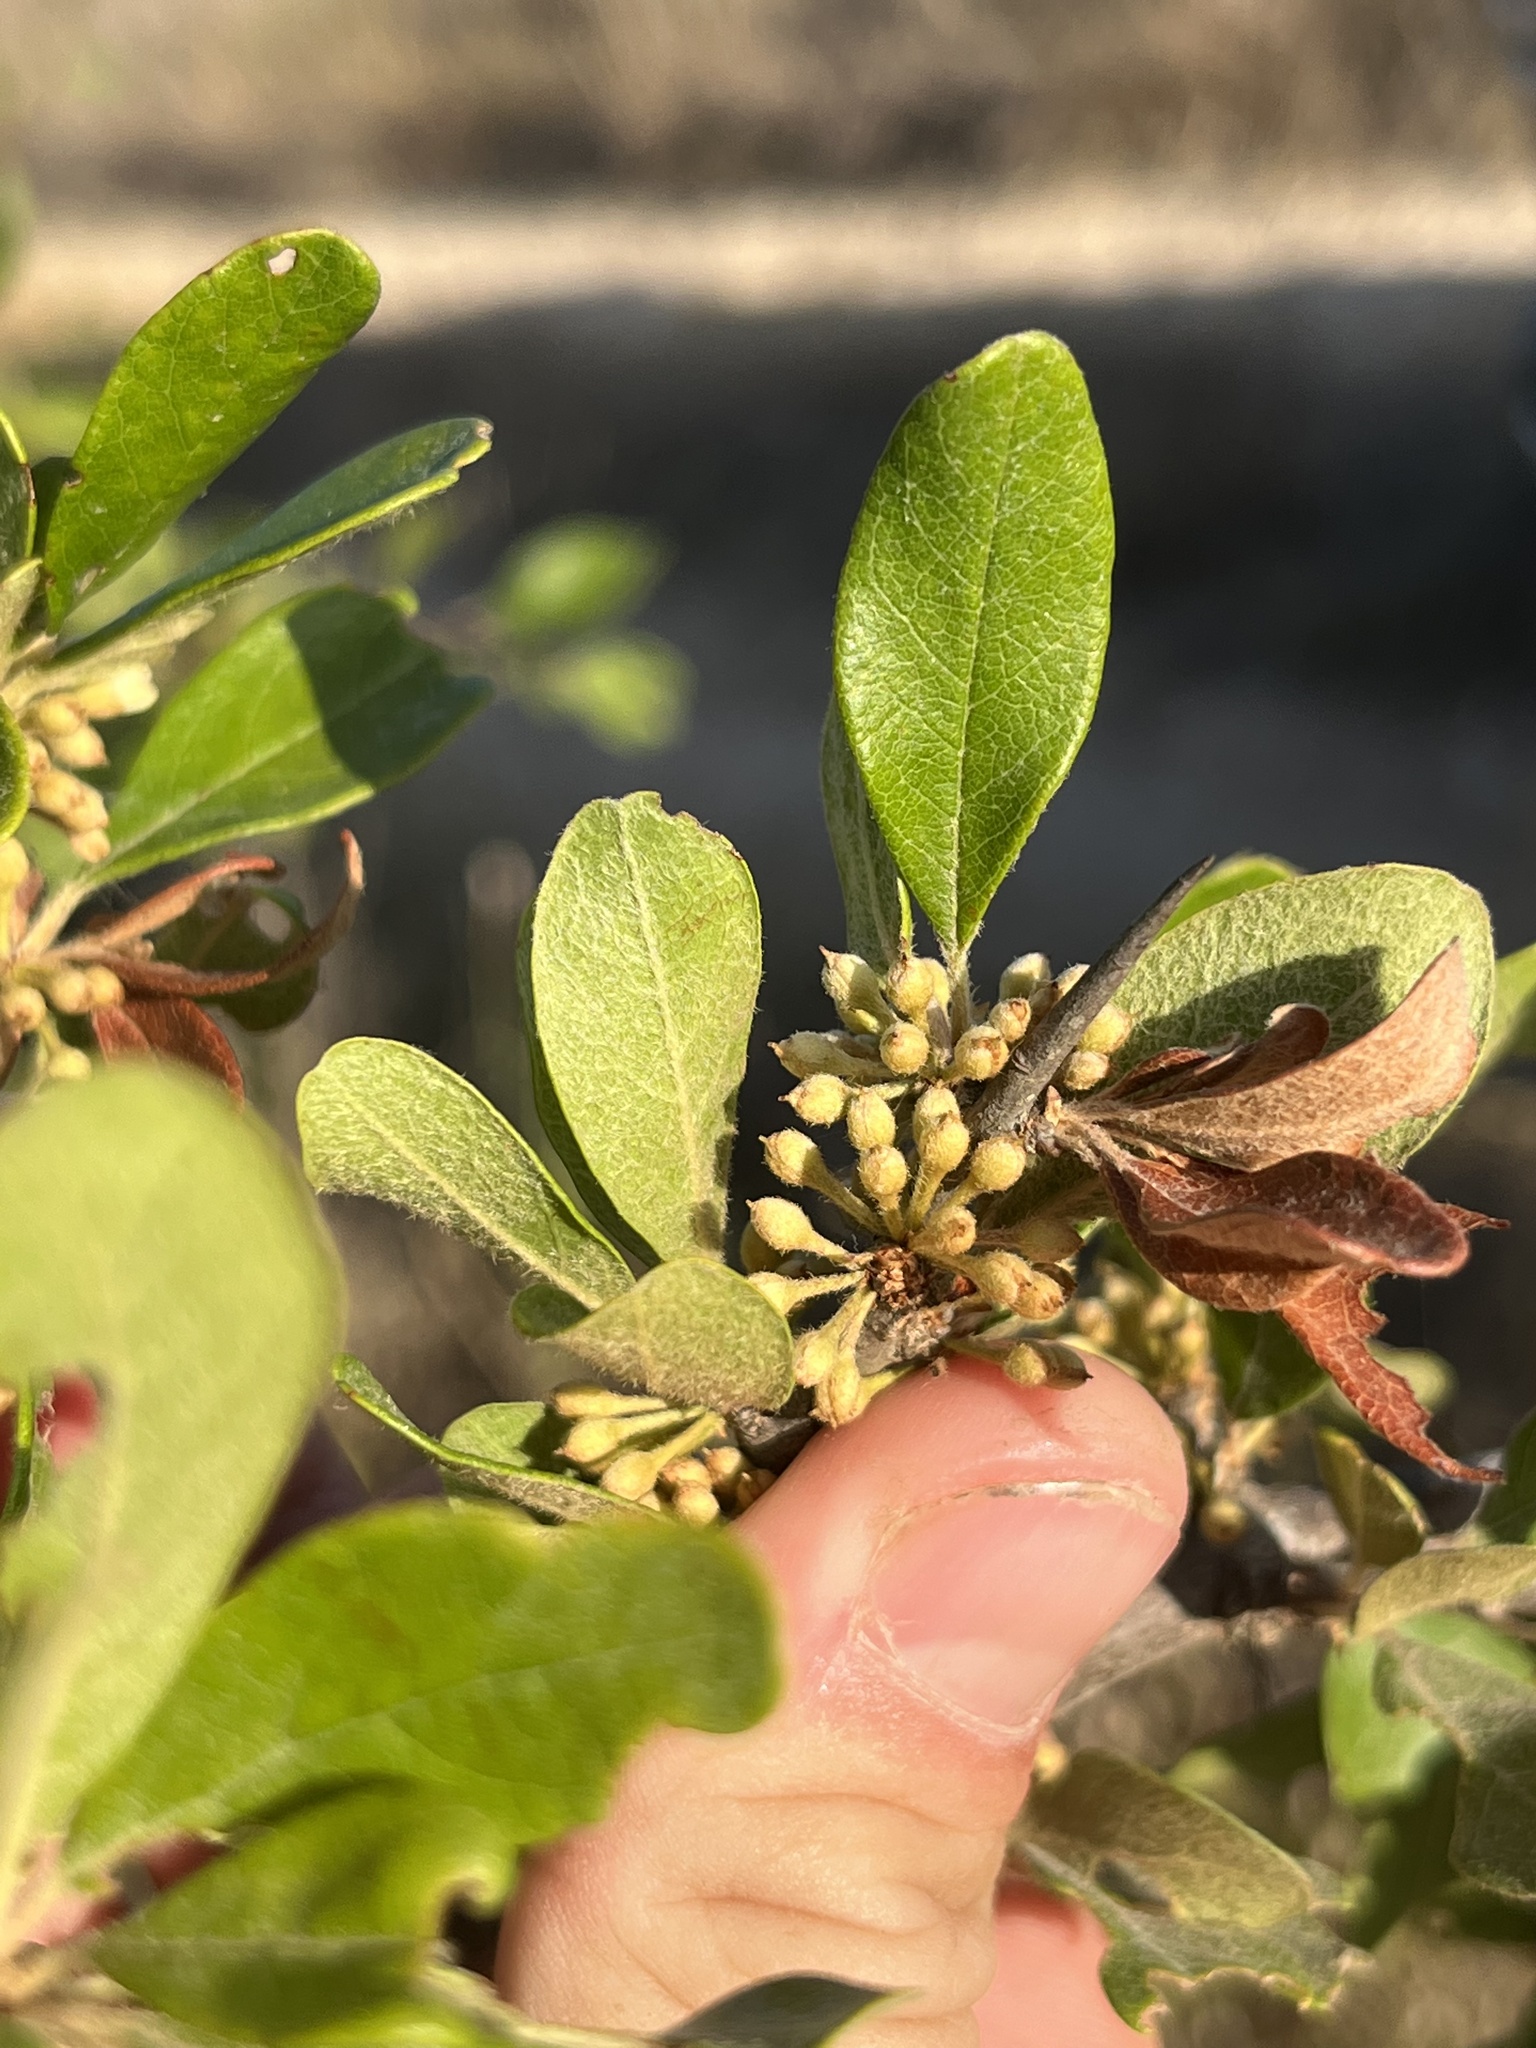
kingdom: Plantae
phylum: Tracheophyta
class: Magnoliopsida
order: Ericales
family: Sapotaceae
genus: Sideroxylon
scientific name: Sideroxylon lanuginosum
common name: Chittamwood
